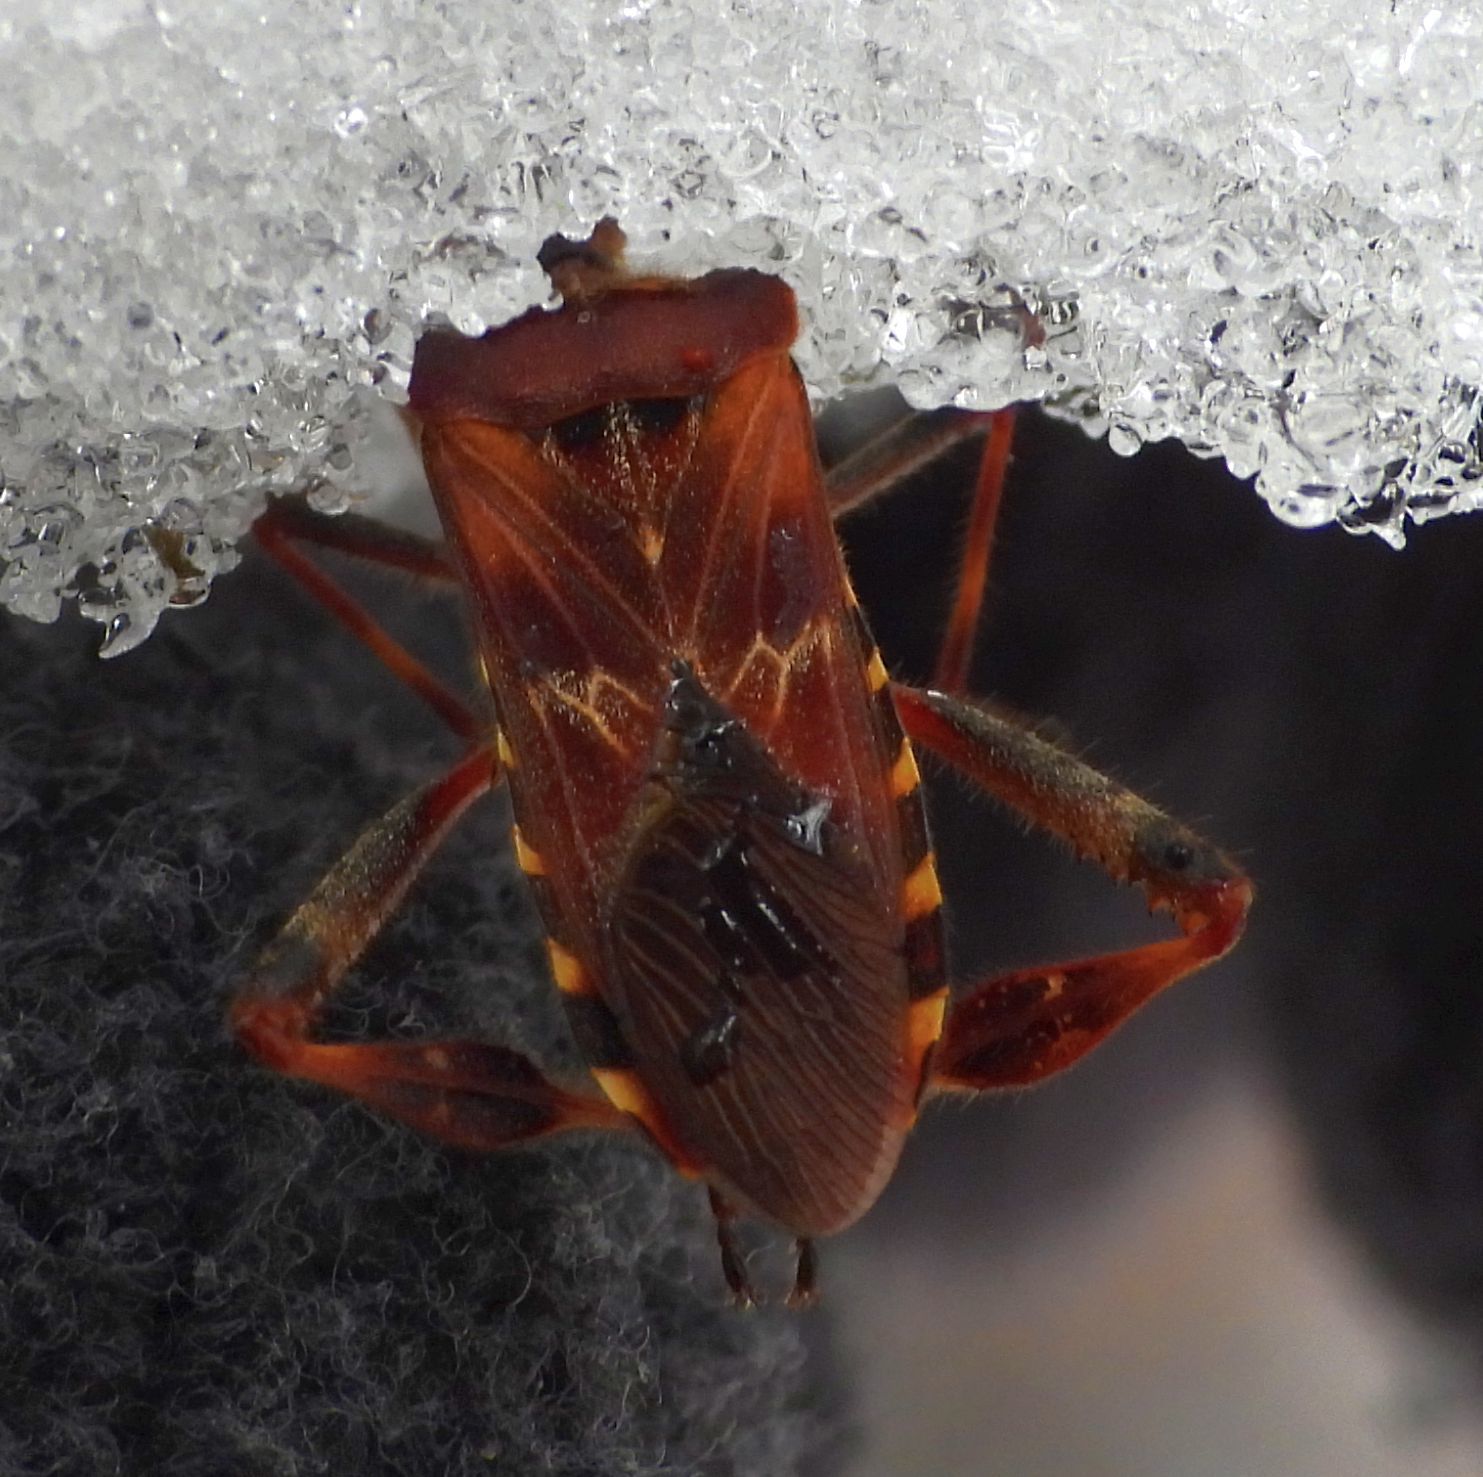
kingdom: Animalia
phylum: Arthropoda
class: Insecta
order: Hemiptera
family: Coreidae
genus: Leptoglossus
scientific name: Leptoglossus occidentalis
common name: Western conifer-seed bug
